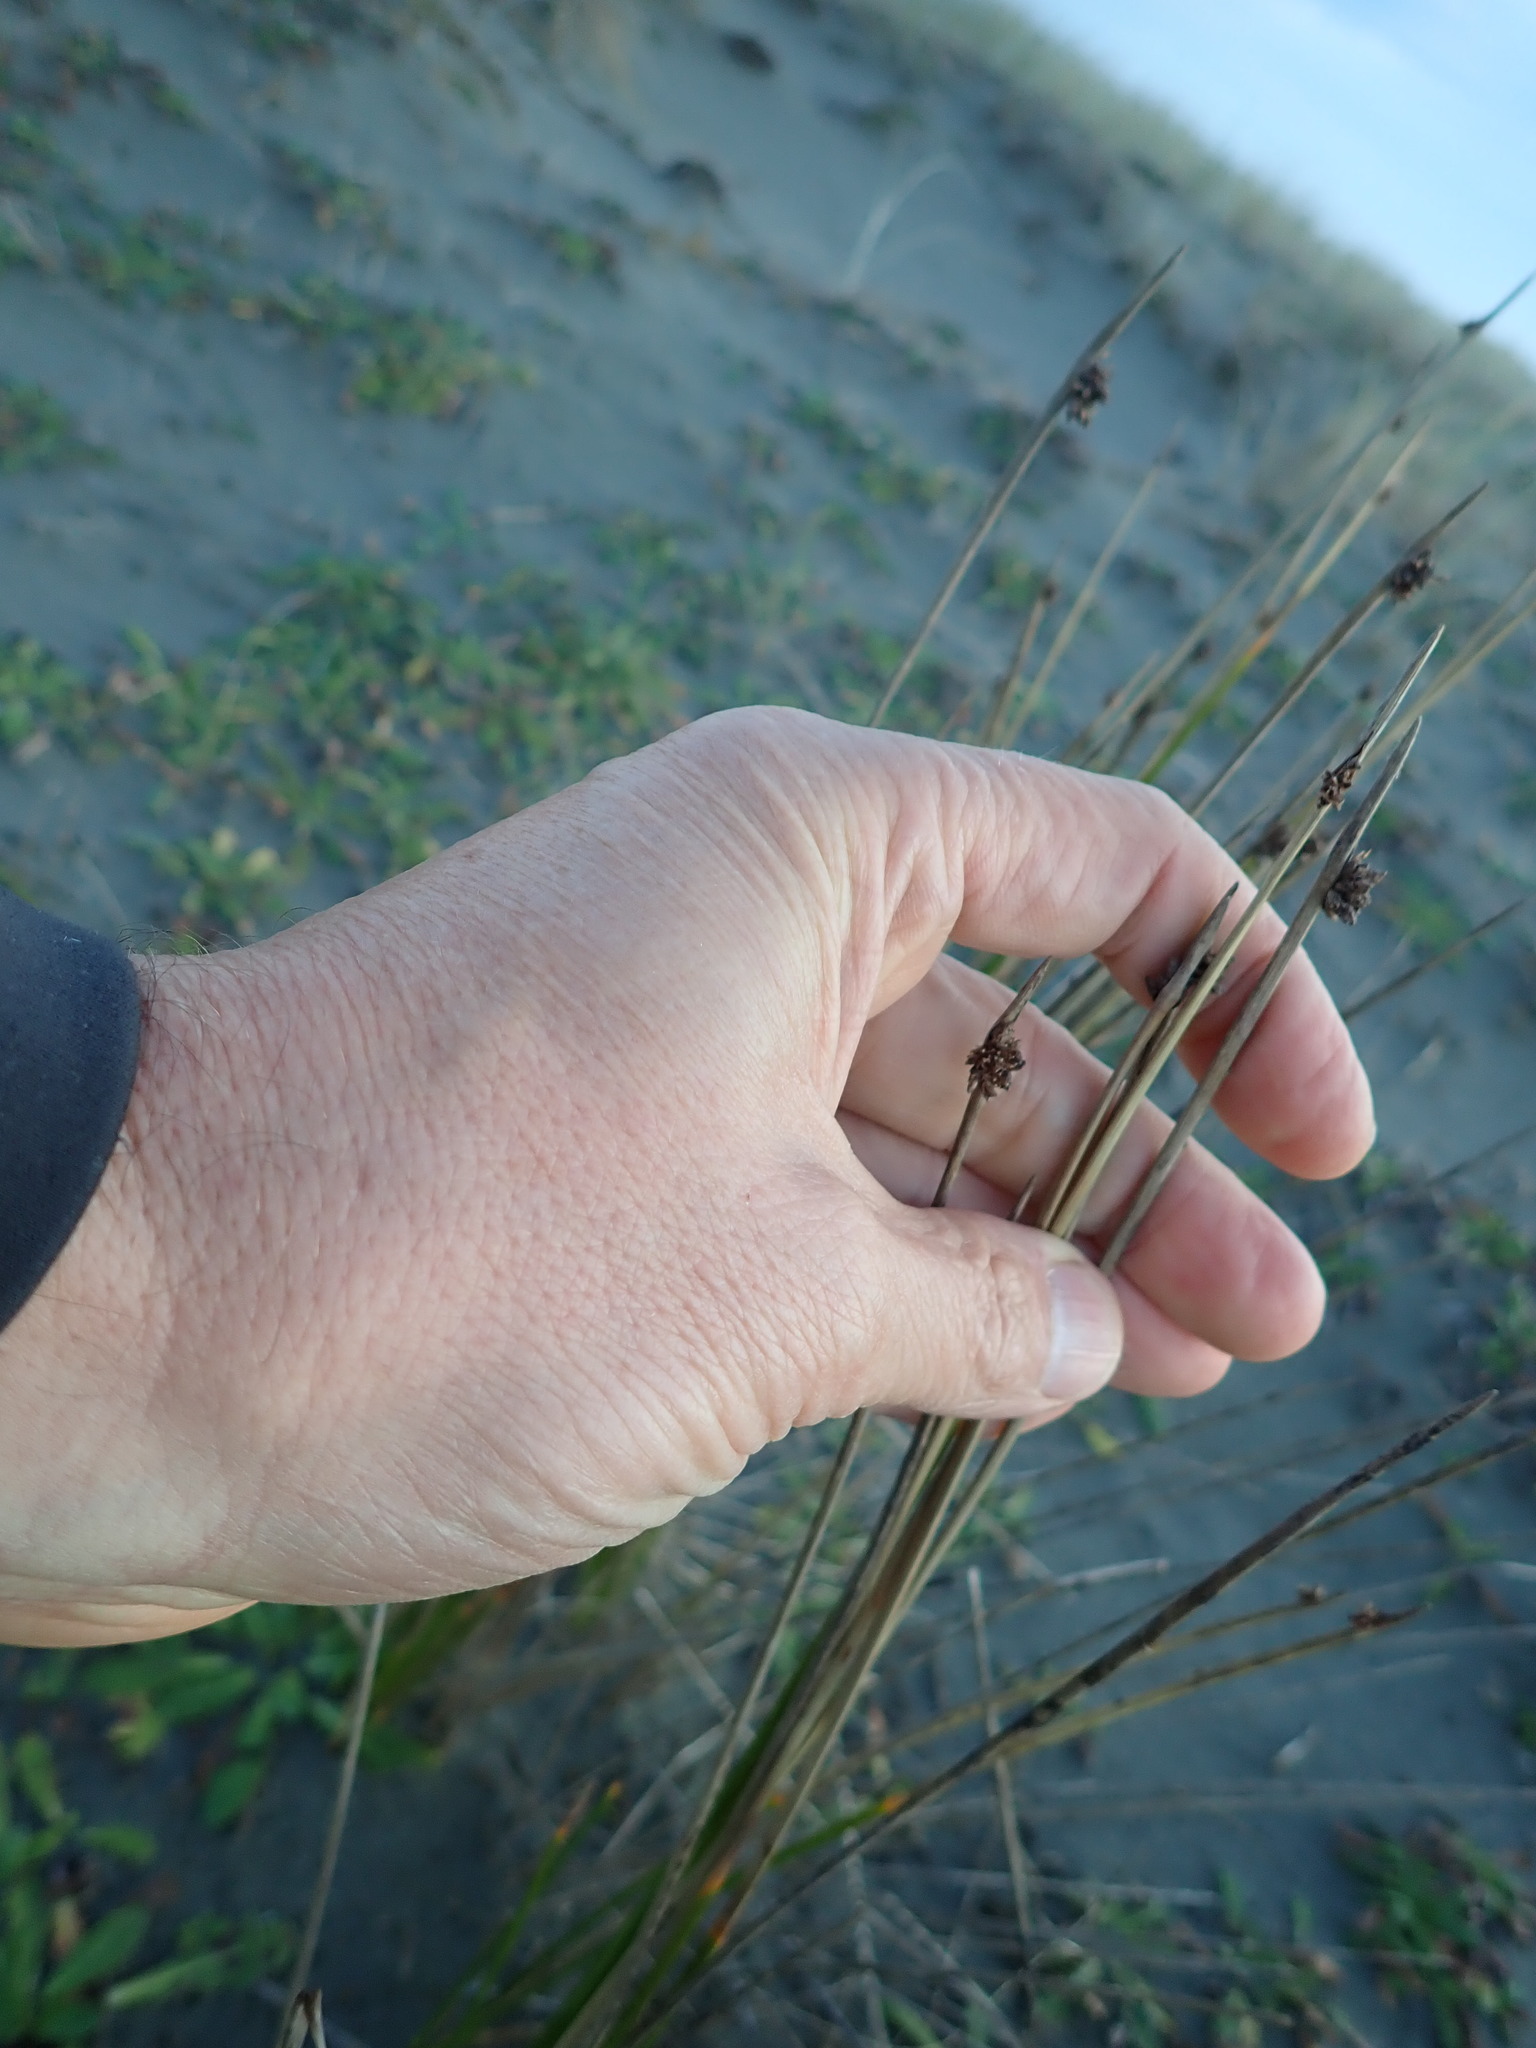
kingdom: Plantae
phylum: Tracheophyta
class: Liliopsida
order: Poales
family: Cyperaceae
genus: Ficinia
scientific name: Ficinia nodosa
